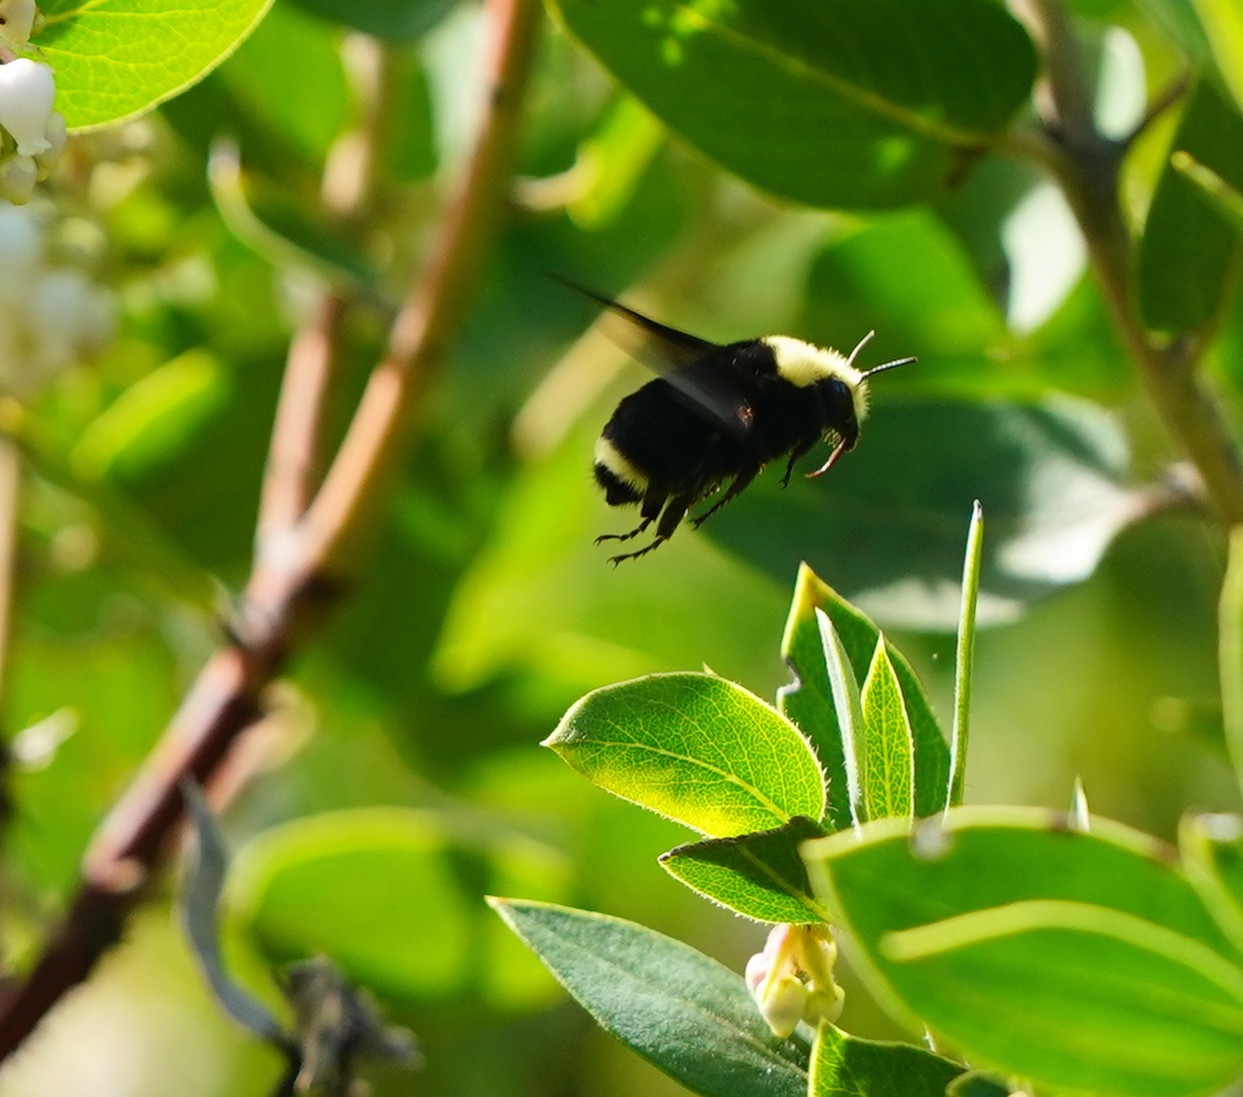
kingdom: Animalia
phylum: Arthropoda
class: Insecta
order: Hymenoptera
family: Apidae
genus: Bombus
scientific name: Bombus vosnesenskii
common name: Vosnesensky bumble bee
